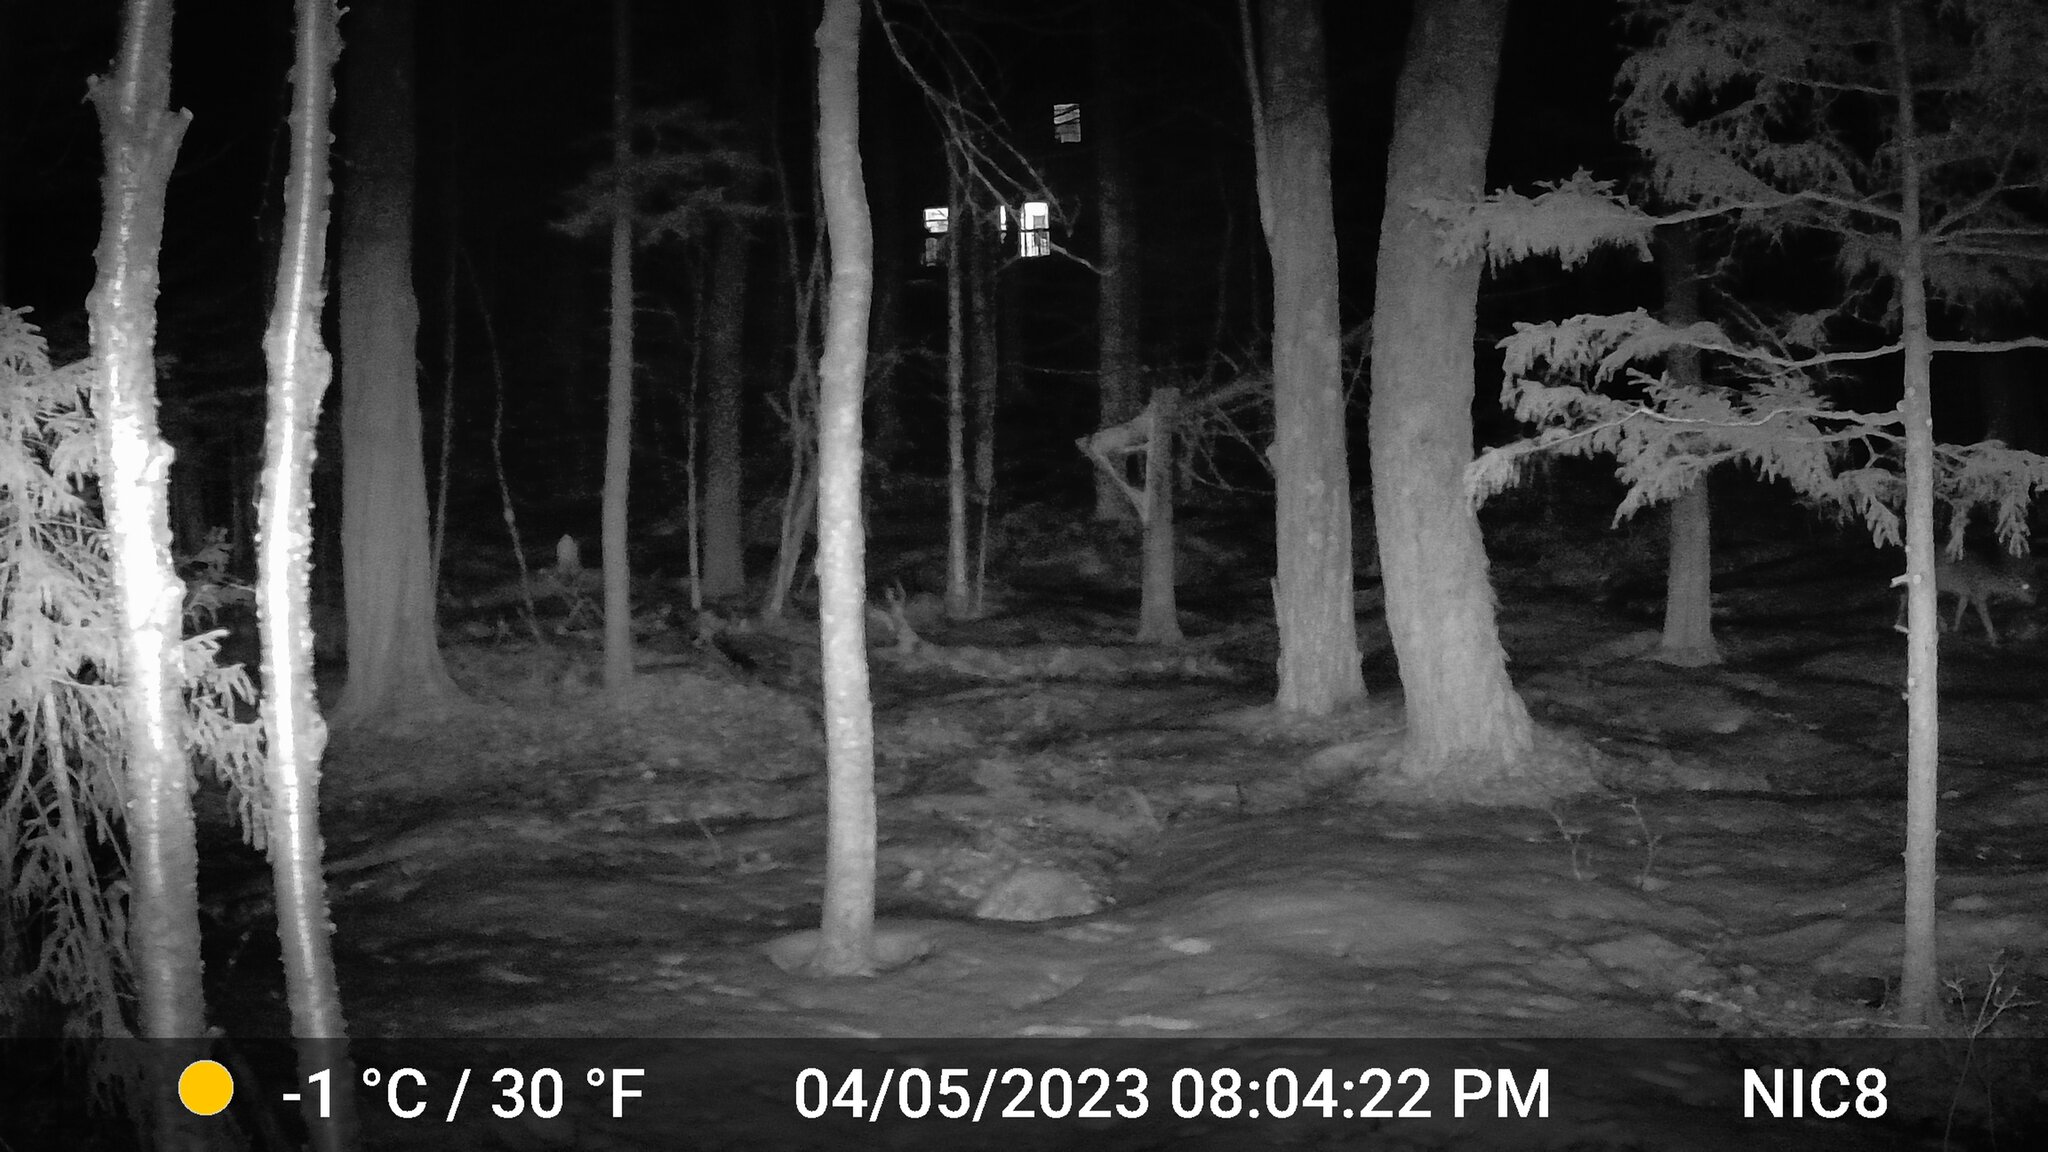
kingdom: Animalia
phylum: Chordata
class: Mammalia
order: Artiodactyla
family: Cervidae
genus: Odocoileus
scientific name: Odocoileus virginianus
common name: White-tailed deer
